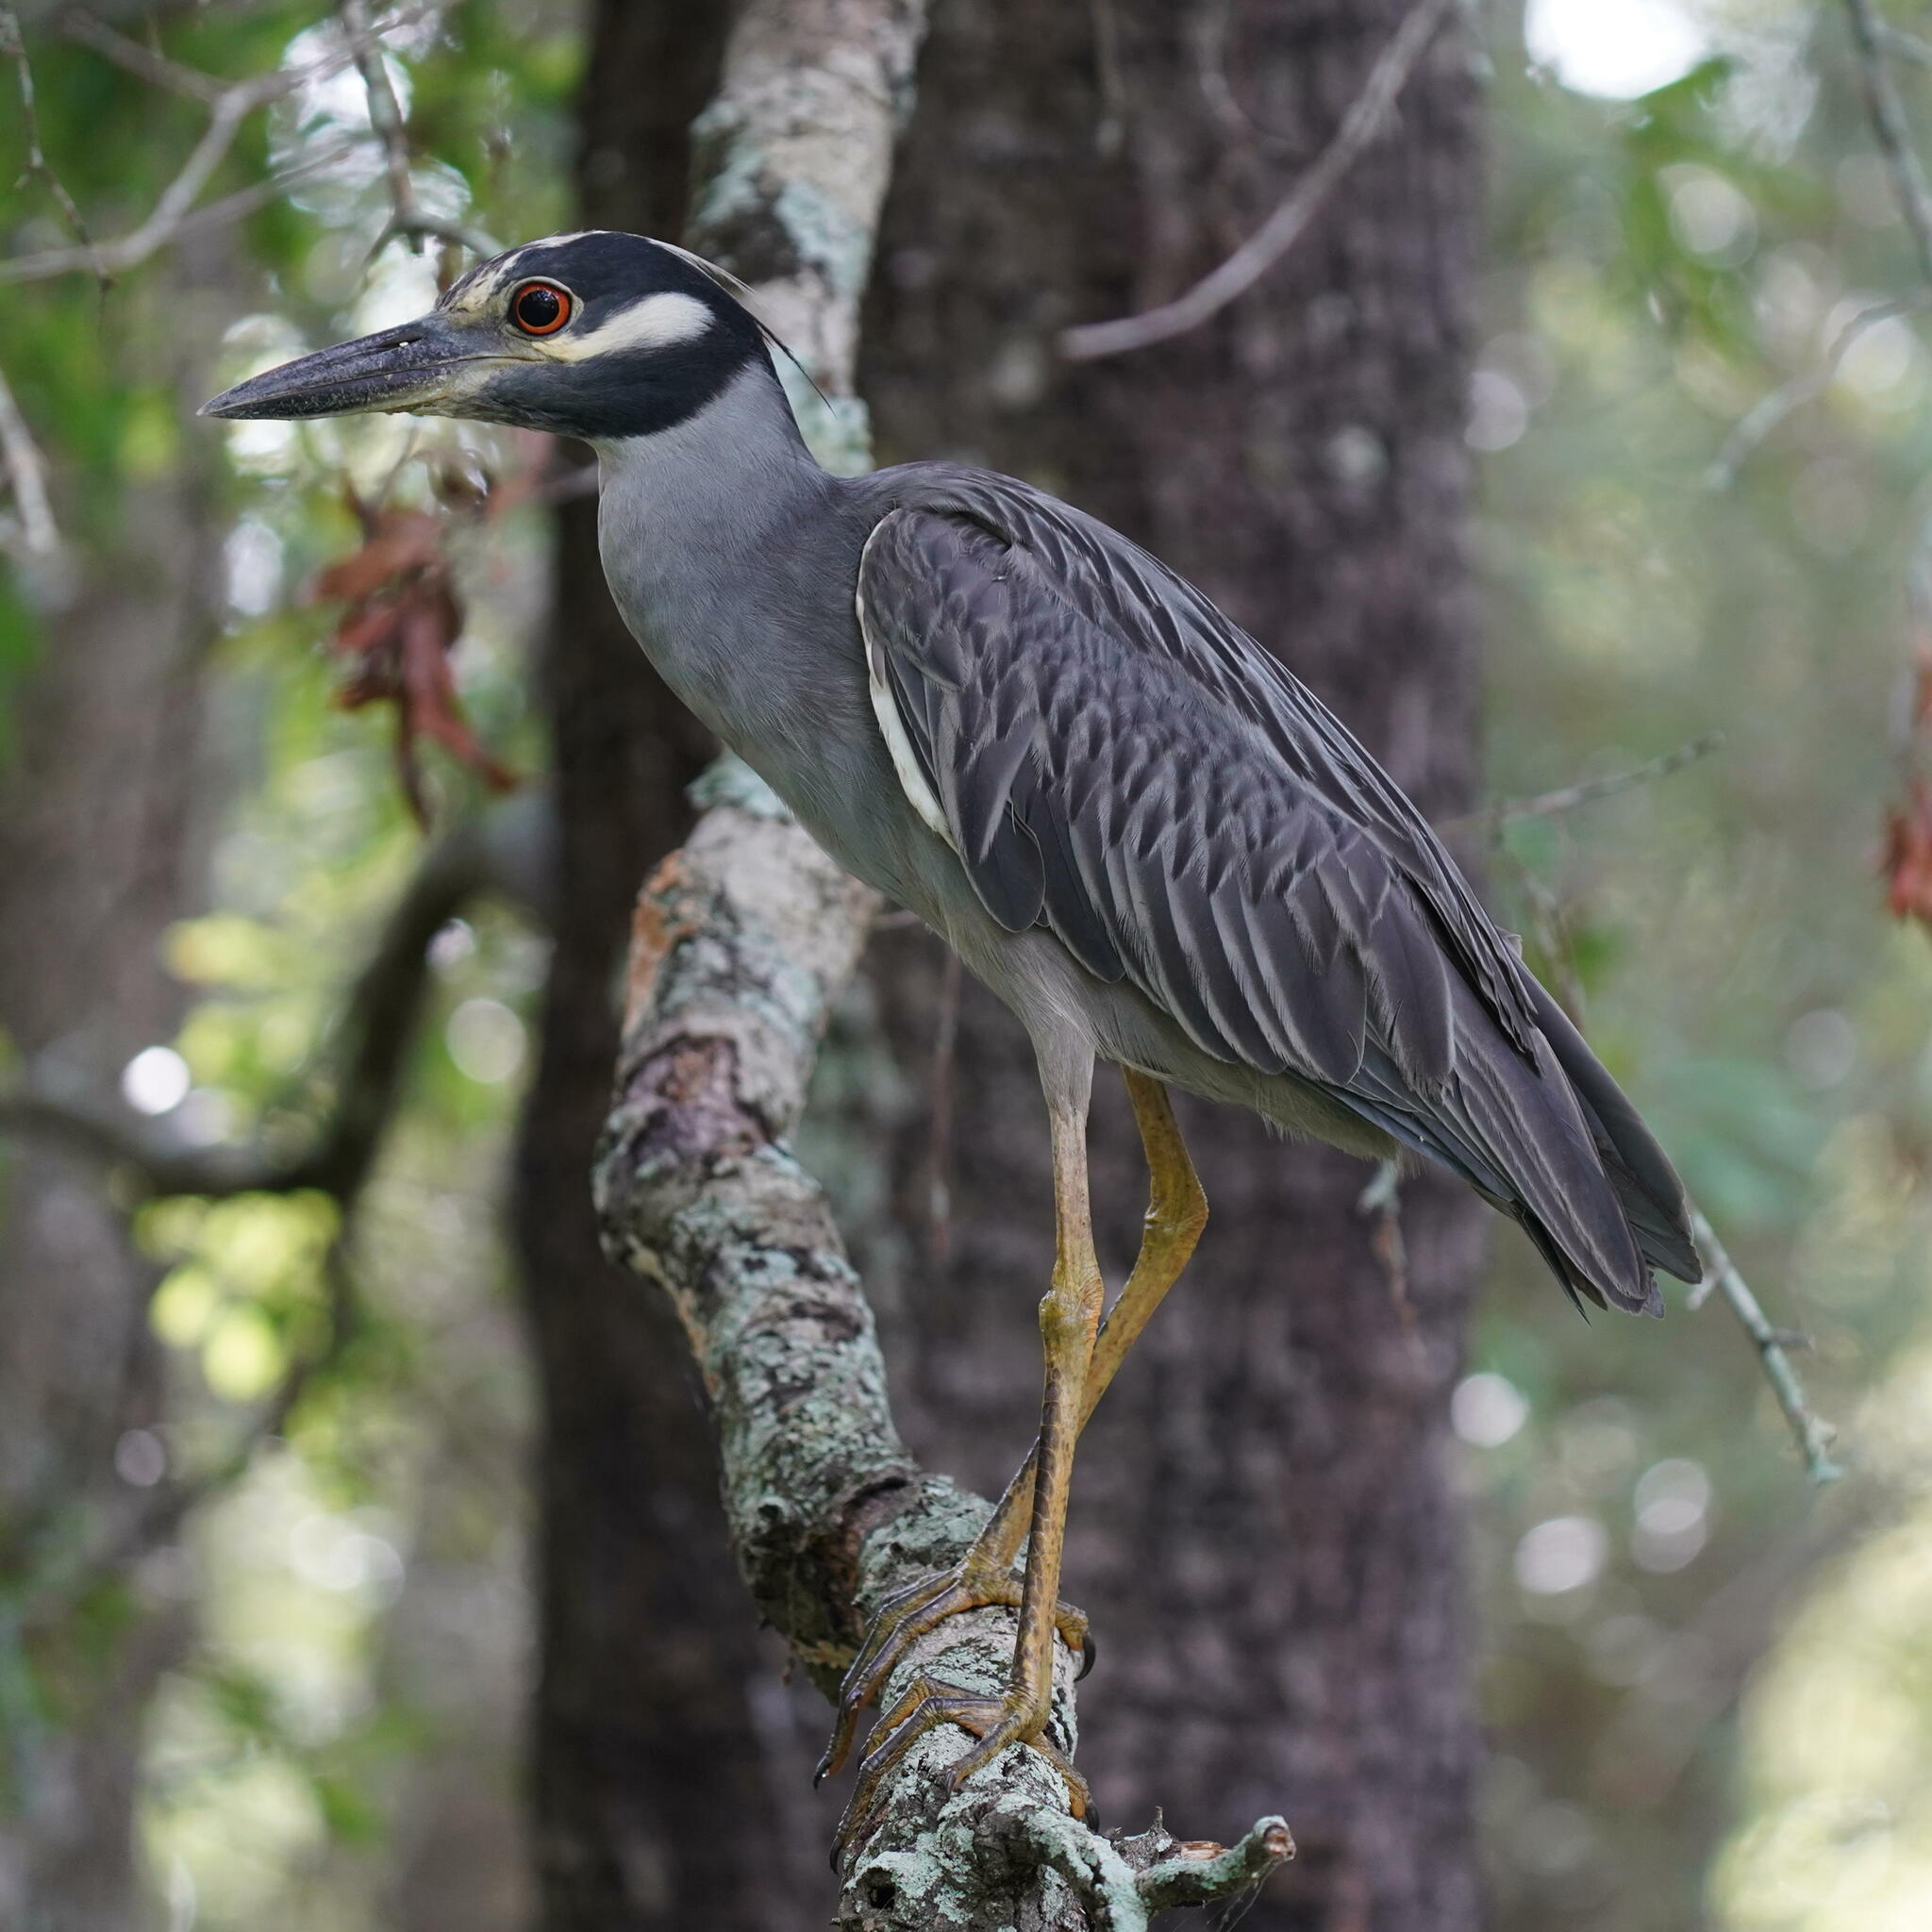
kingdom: Animalia
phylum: Chordata
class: Aves
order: Pelecaniformes
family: Ardeidae
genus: Nyctanassa
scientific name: Nyctanassa violacea
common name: Yellow-crowned night heron
